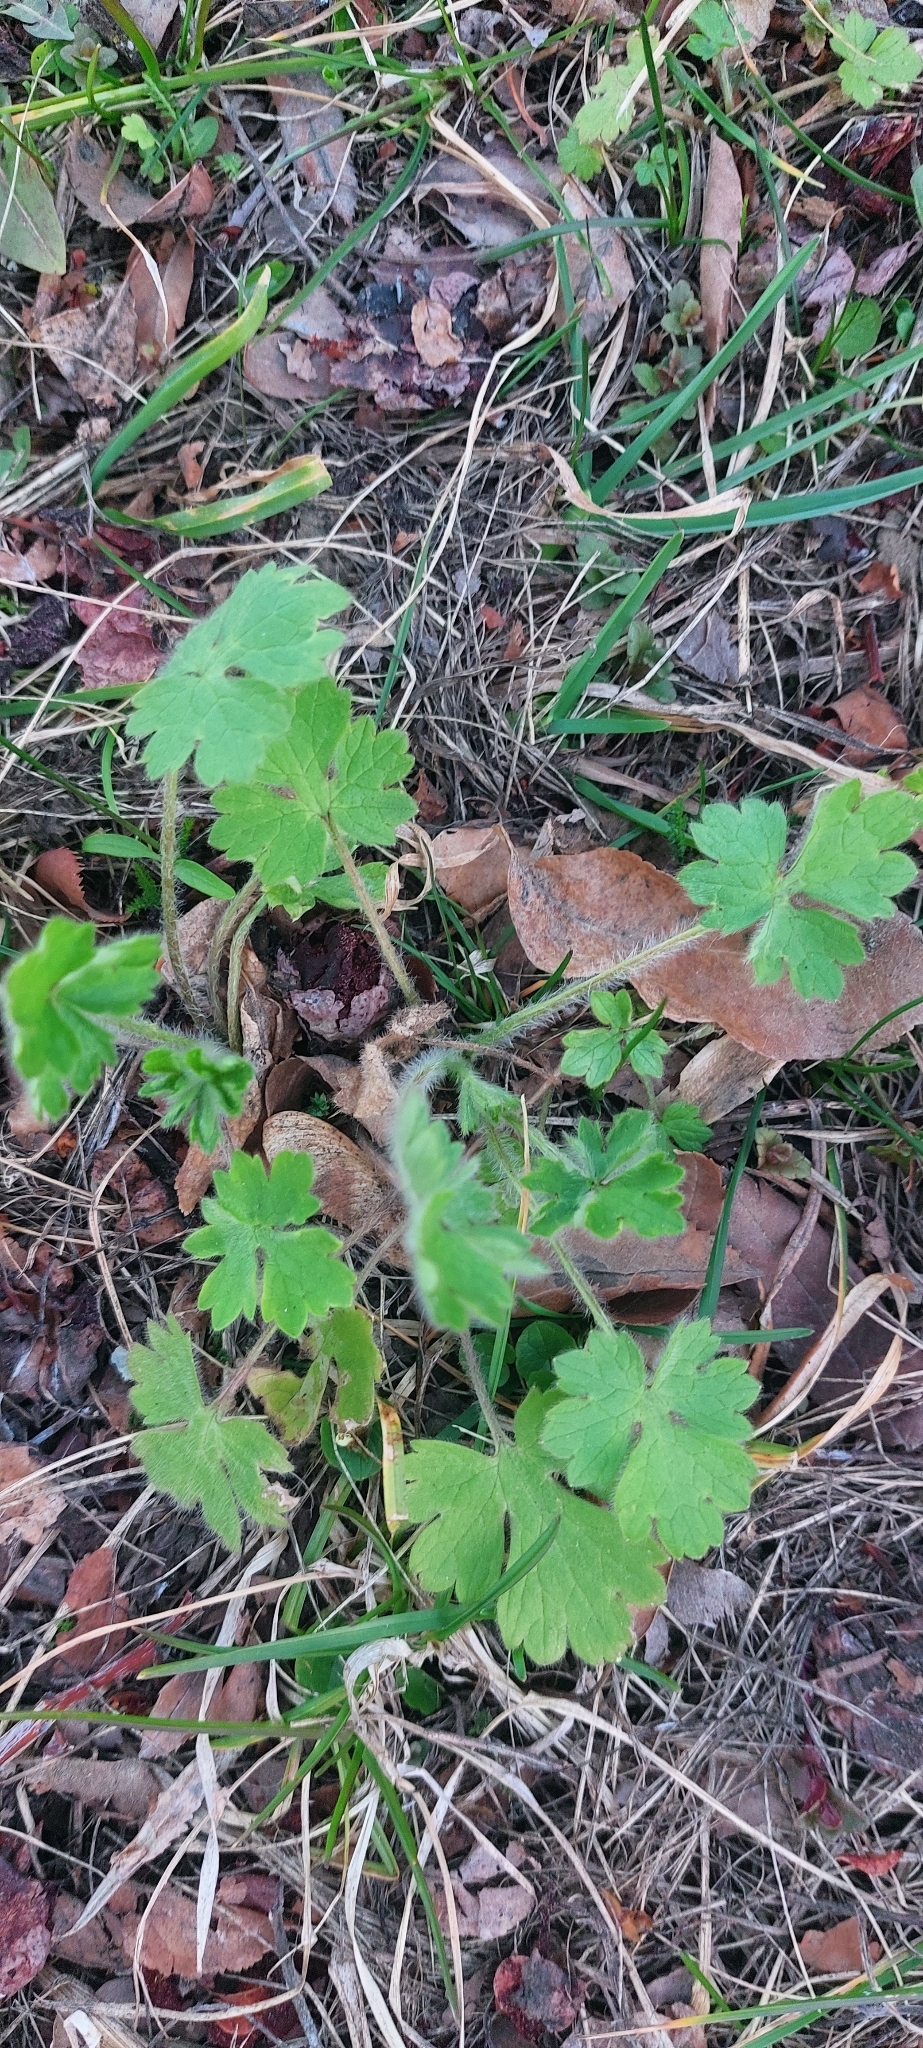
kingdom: Plantae
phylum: Tracheophyta
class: Magnoliopsida
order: Ranunculales
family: Ranunculaceae
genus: Ranunculus
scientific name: Ranunculus lanuginosus
